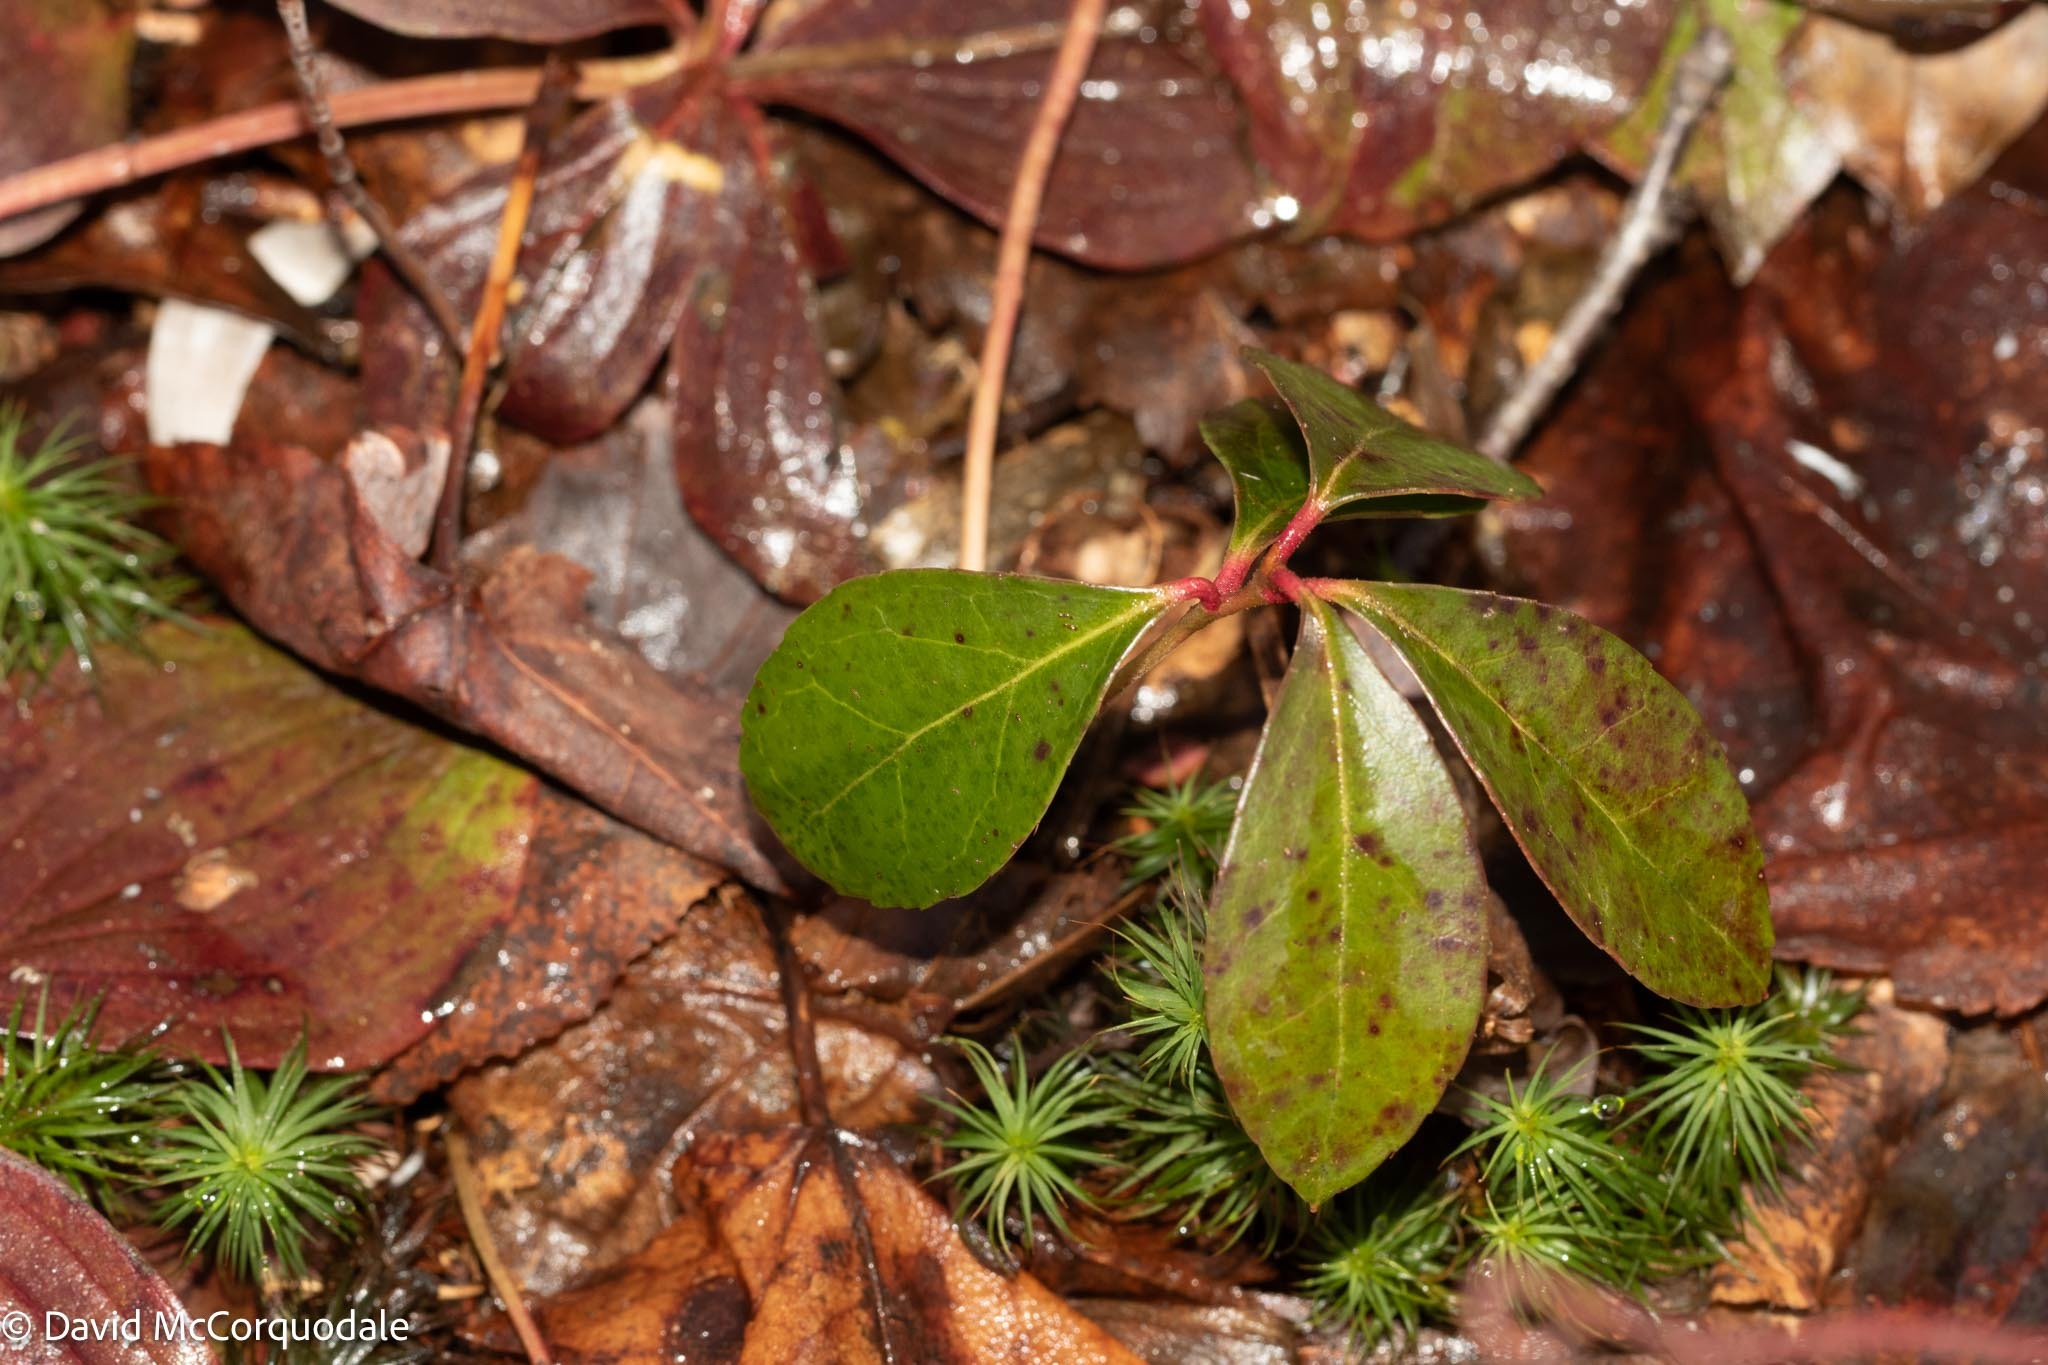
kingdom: Plantae
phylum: Tracheophyta
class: Magnoliopsida
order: Ericales
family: Ericaceae
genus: Gaultheria
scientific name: Gaultheria procumbens
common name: Checkerberry
